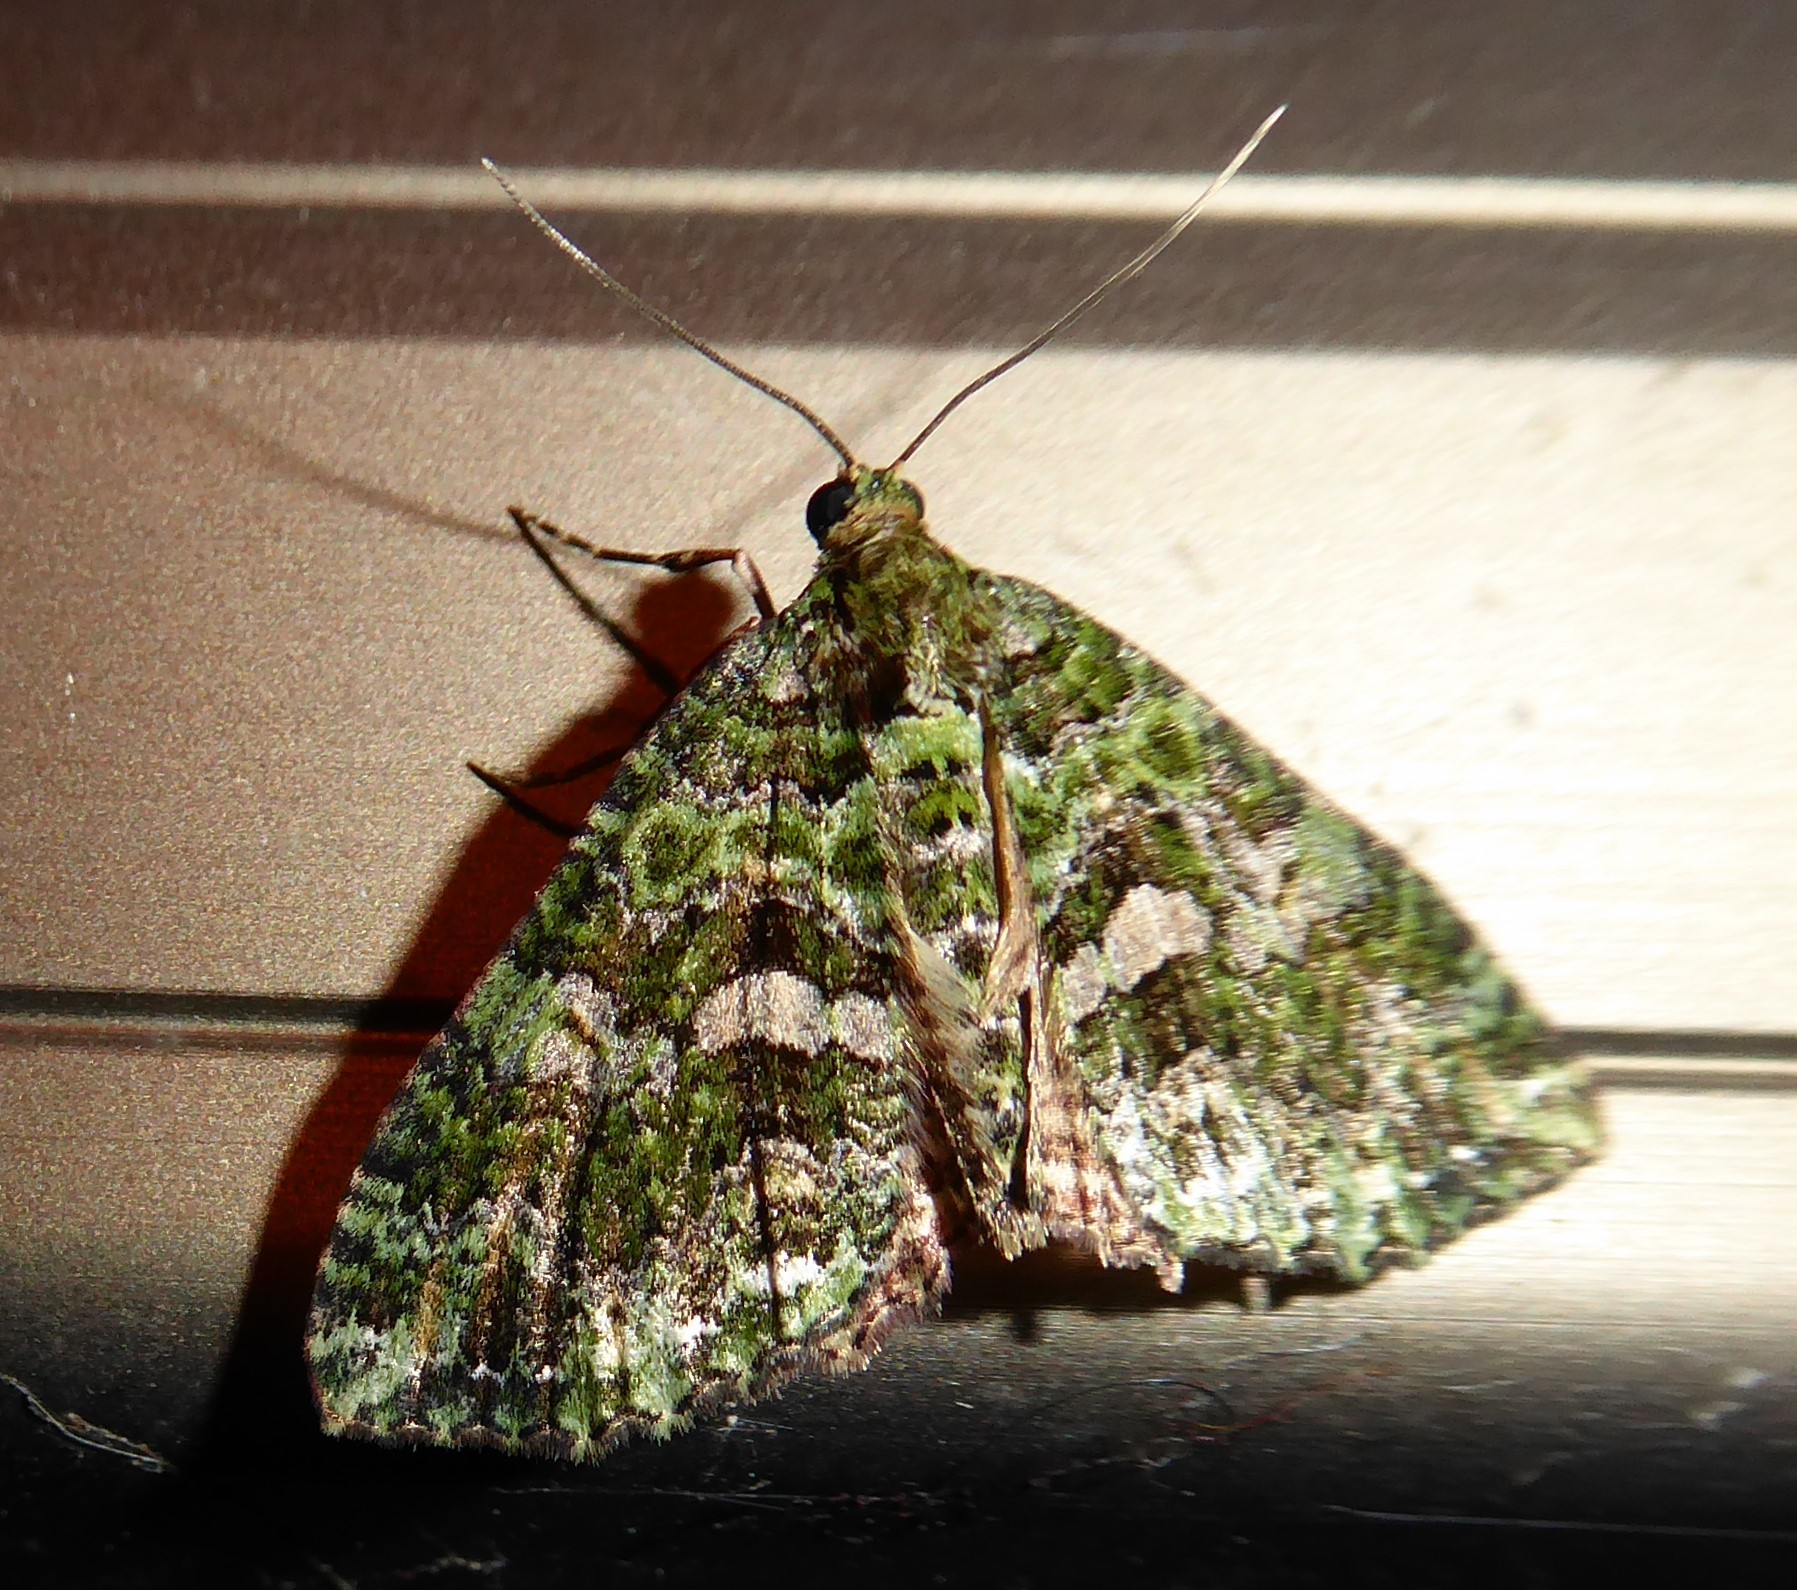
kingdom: Animalia
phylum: Arthropoda
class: Insecta
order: Lepidoptera
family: Geometridae
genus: Austrocidaria
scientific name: Austrocidaria similata
